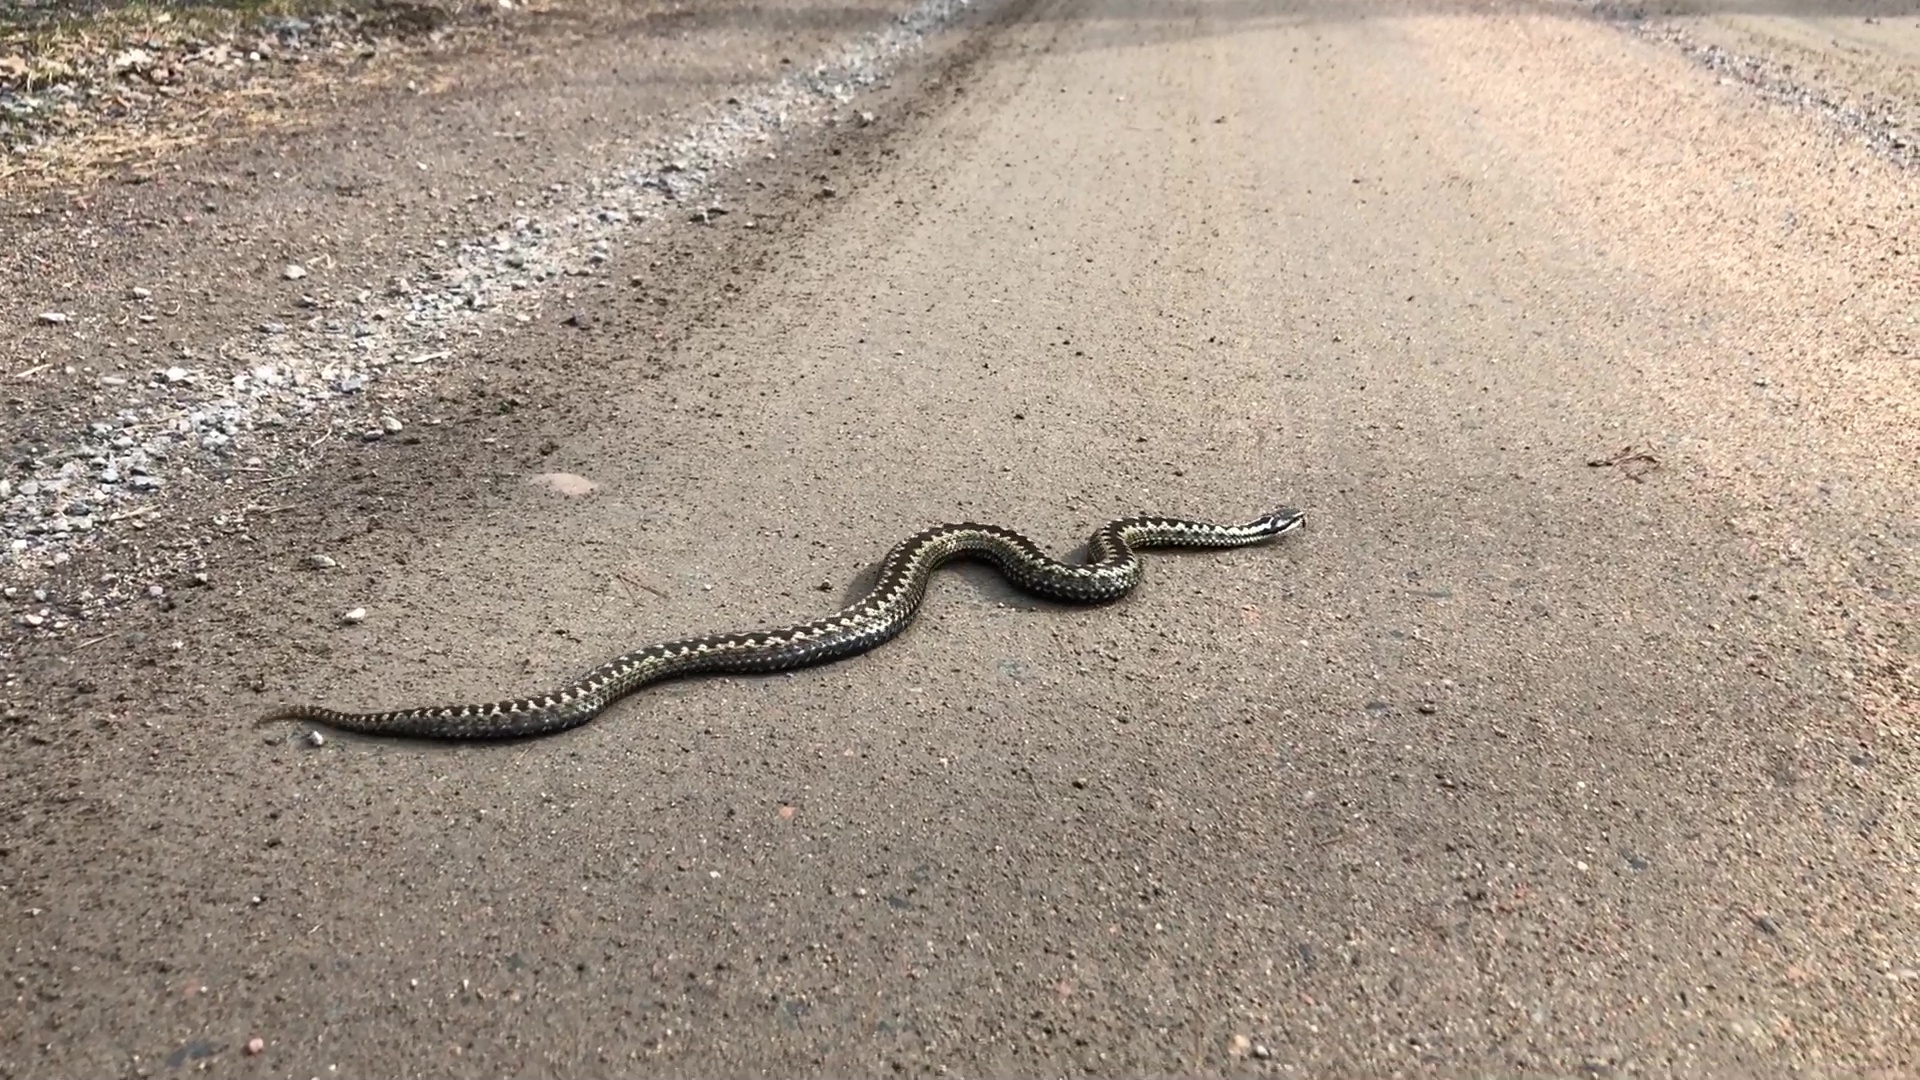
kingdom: Animalia
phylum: Chordata
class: Squamata
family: Viperidae
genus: Vipera
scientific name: Vipera berus
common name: Adder
